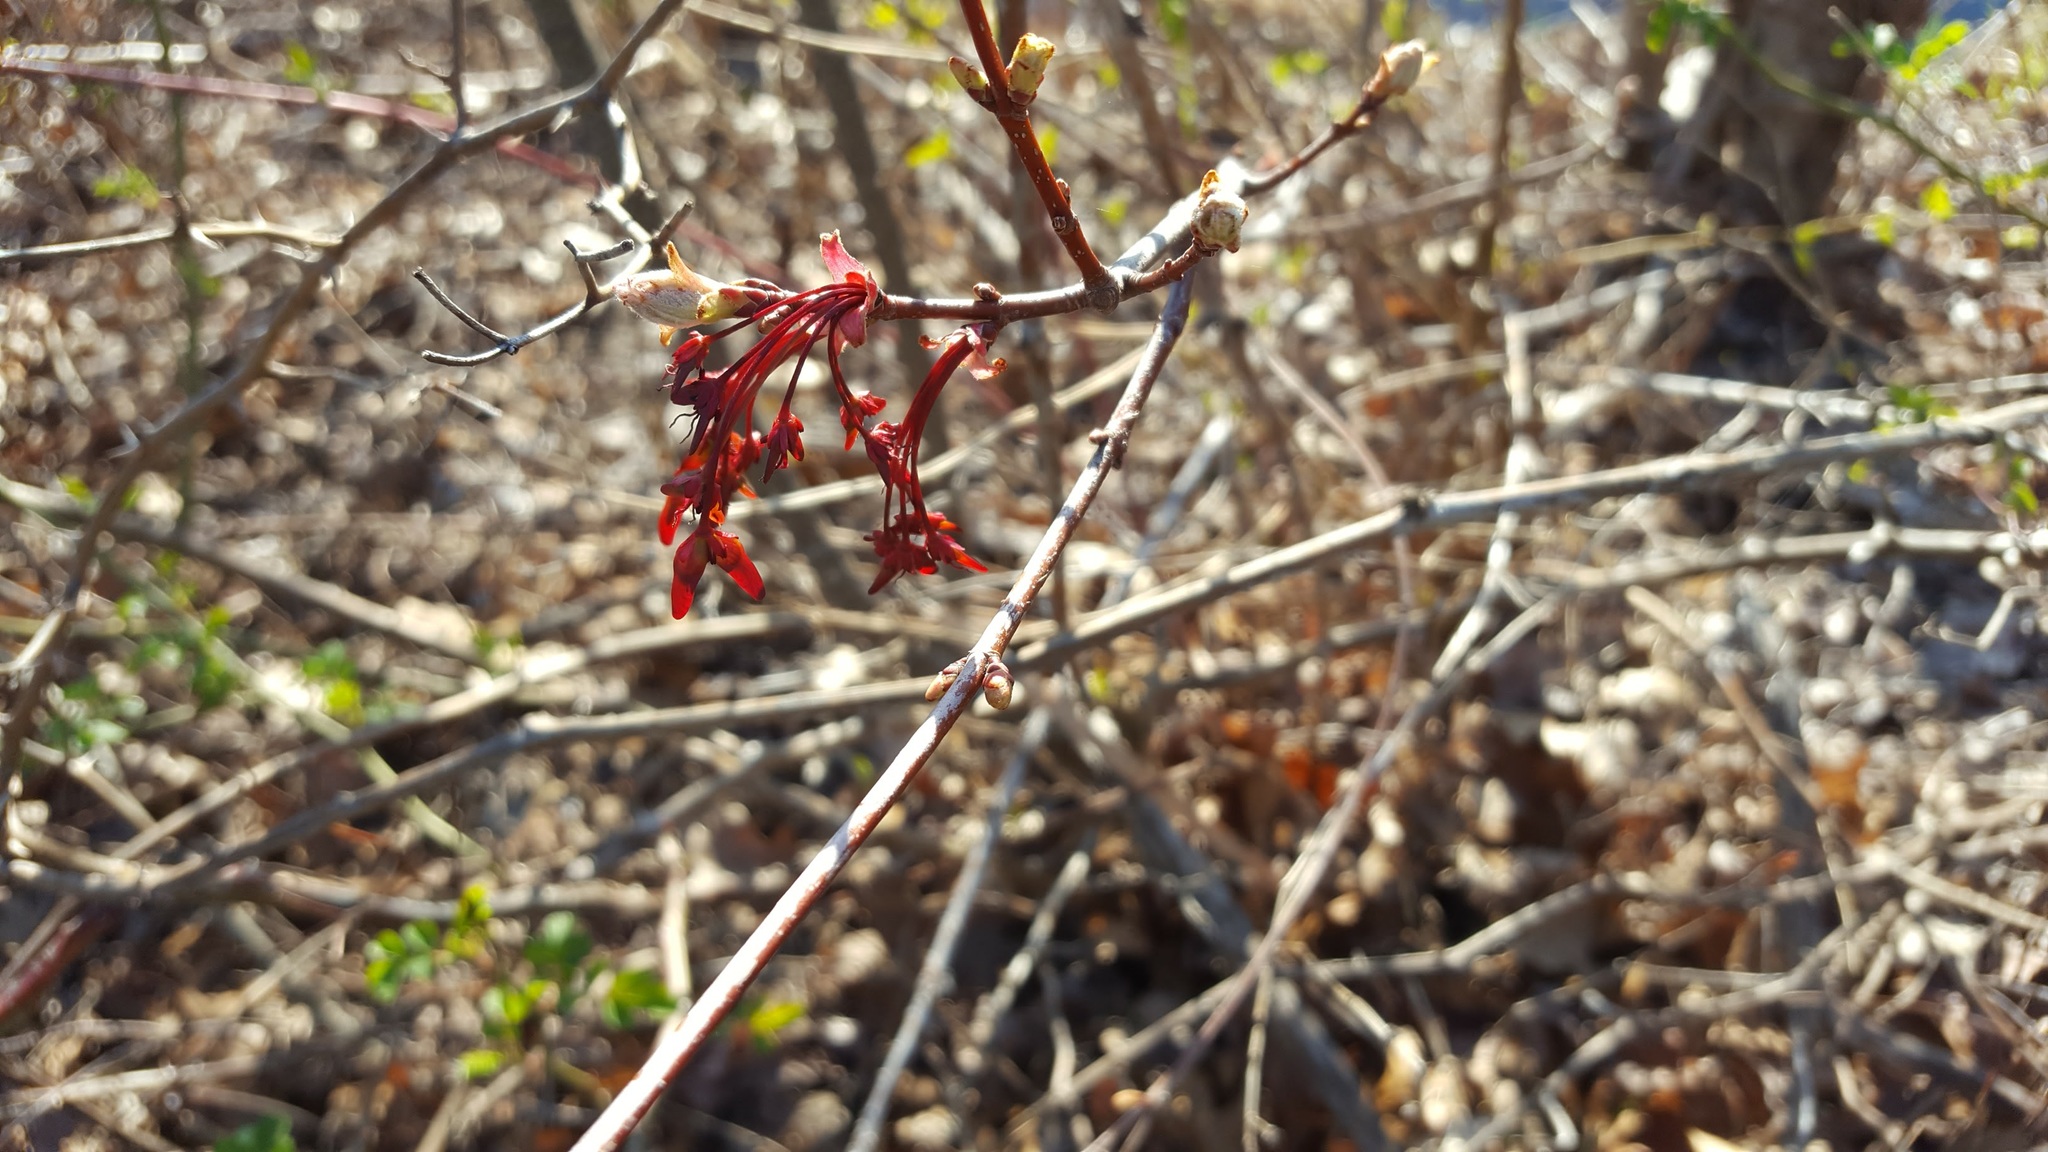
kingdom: Plantae
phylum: Tracheophyta
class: Magnoliopsida
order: Sapindales
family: Sapindaceae
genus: Acer
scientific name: Acer rubrum
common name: Red maple
